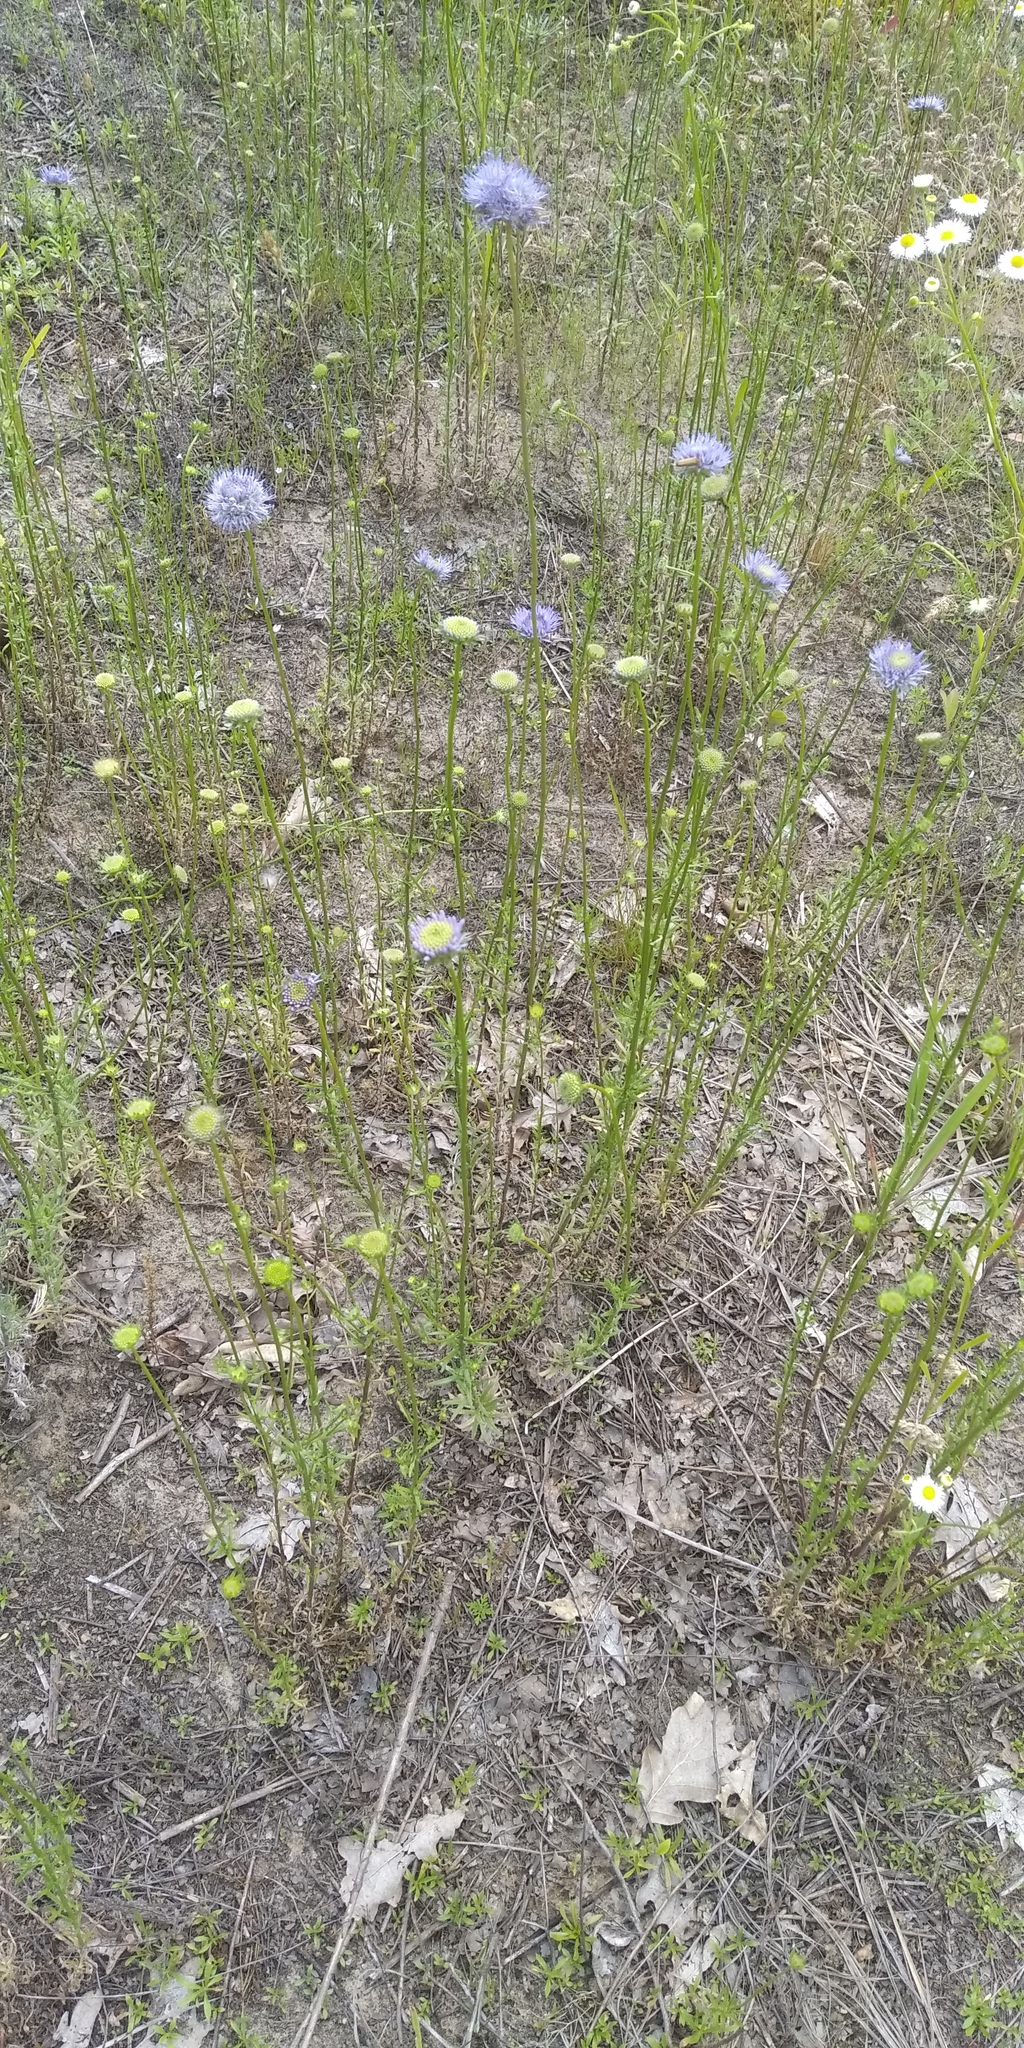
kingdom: Plantae
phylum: Tracheophyta
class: Magnoliopsida
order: Asterales
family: Campanulaceae
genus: Jasione
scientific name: Jasione montana
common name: Sheep's-bit
